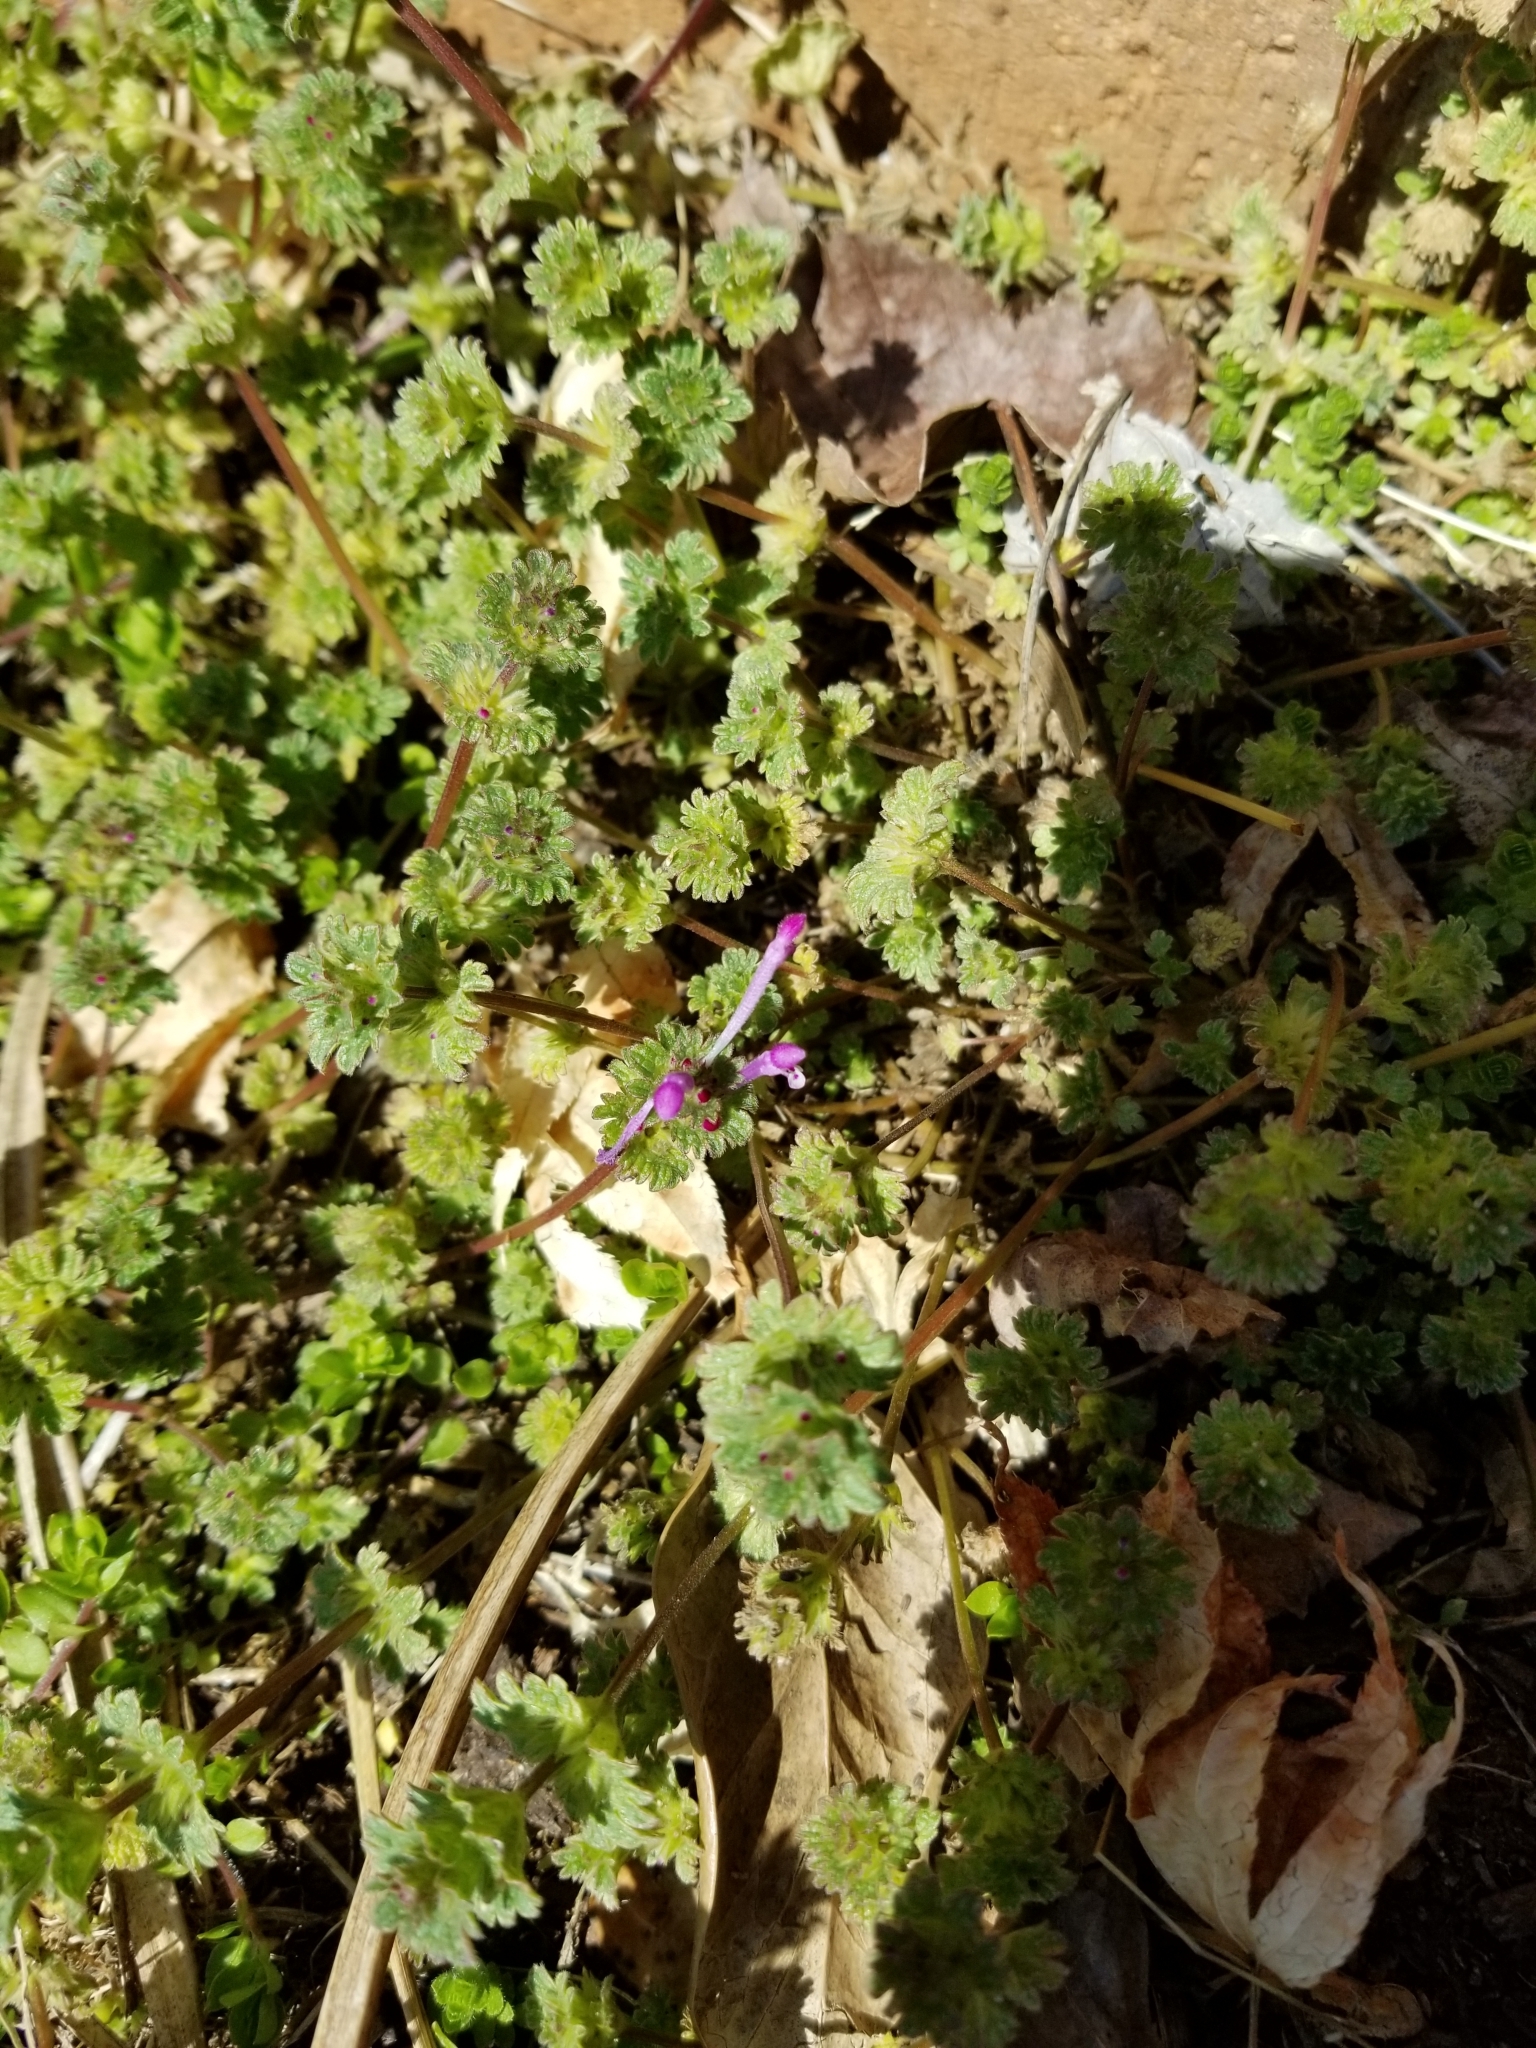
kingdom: Plantae
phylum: Tracheophyta
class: Magnoliopsida
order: Lamiales
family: Lamiaceae
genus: Lamium
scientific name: Lamium amplexicaule
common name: Henbit dead-nettle
